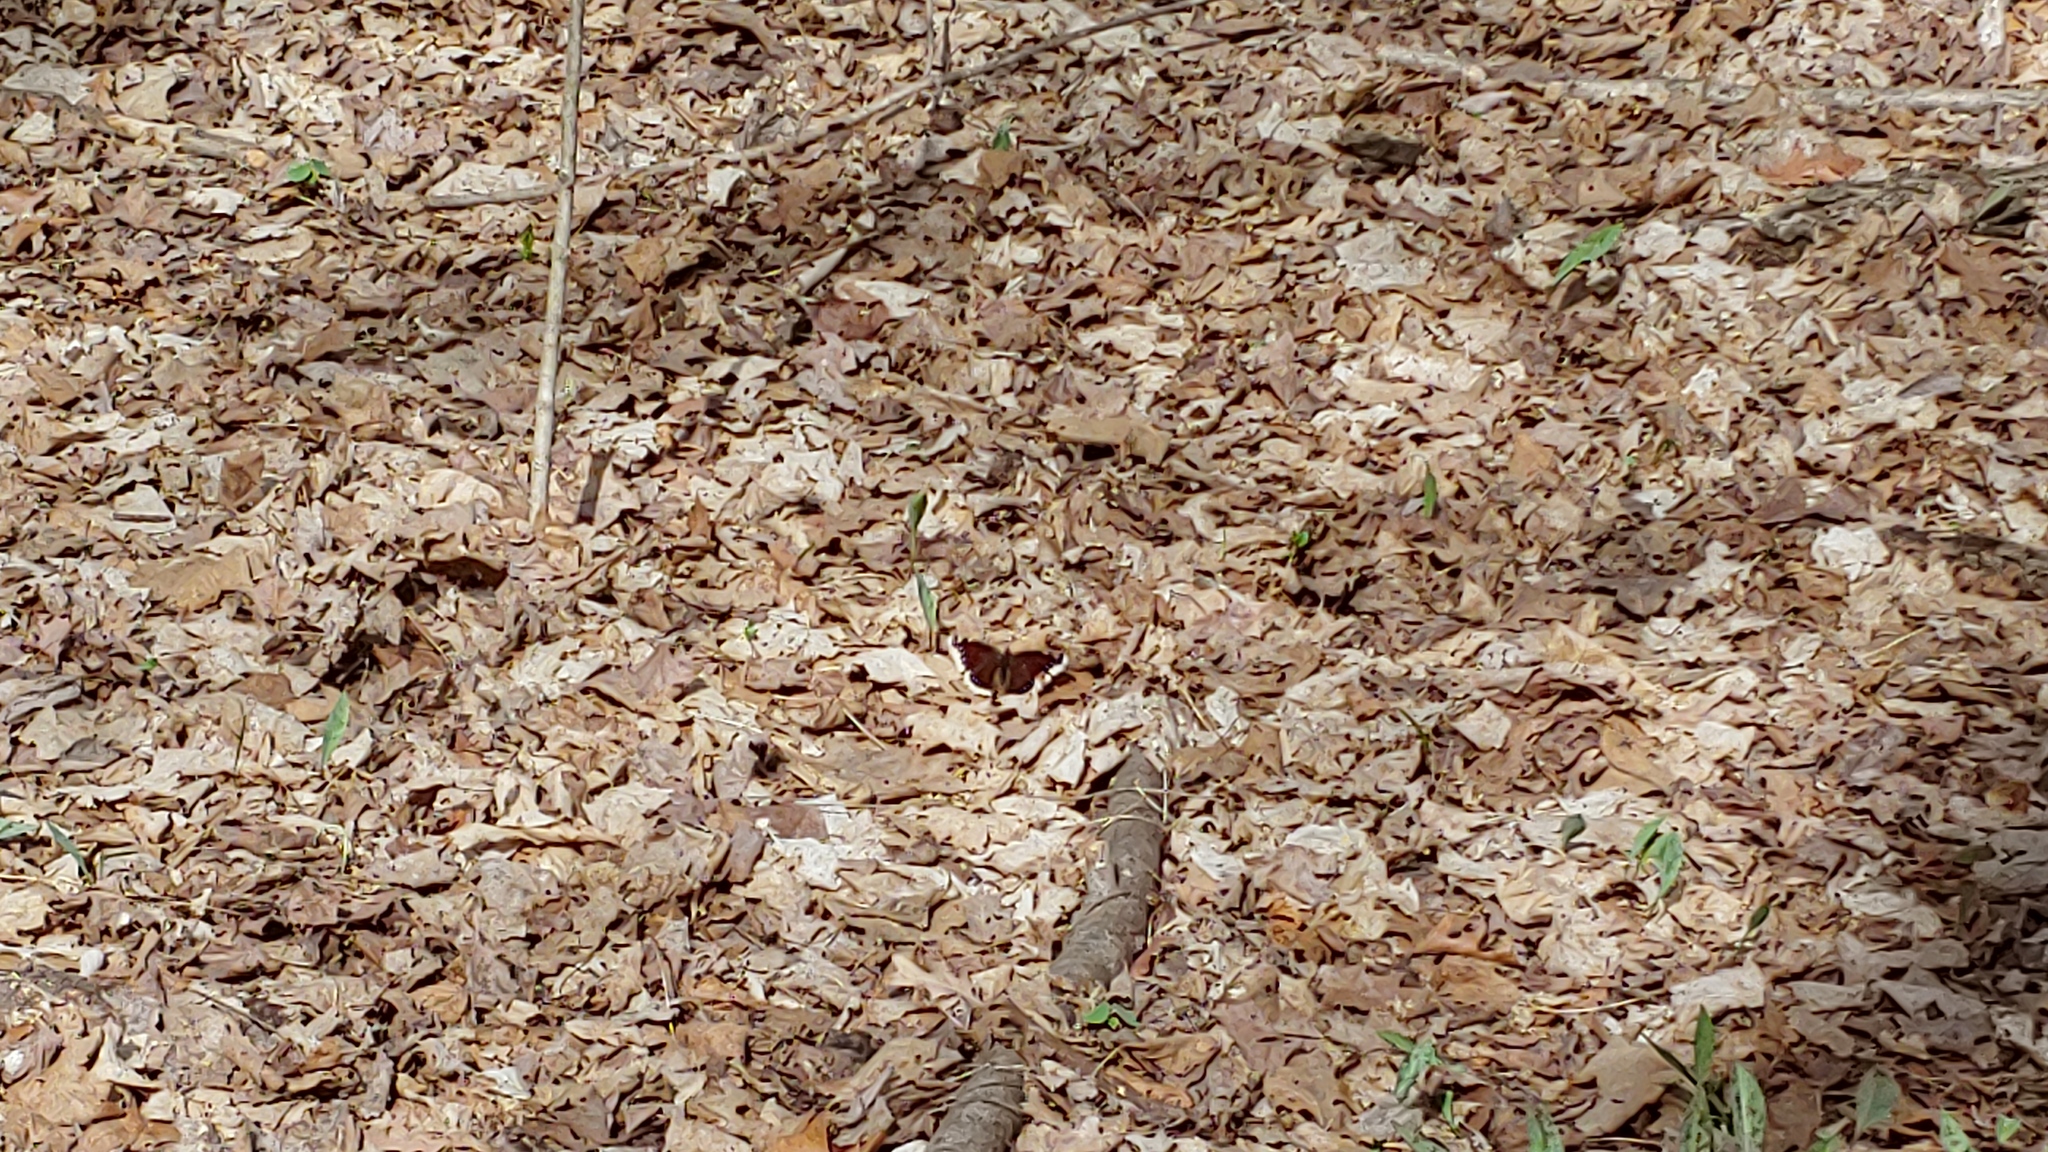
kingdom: Animalia
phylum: Arthropoda
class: Insecta
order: Lepidoptera
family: Nymphalidae
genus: Nymphalis
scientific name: Nymphalis antiopa
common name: Camberwell beauty
